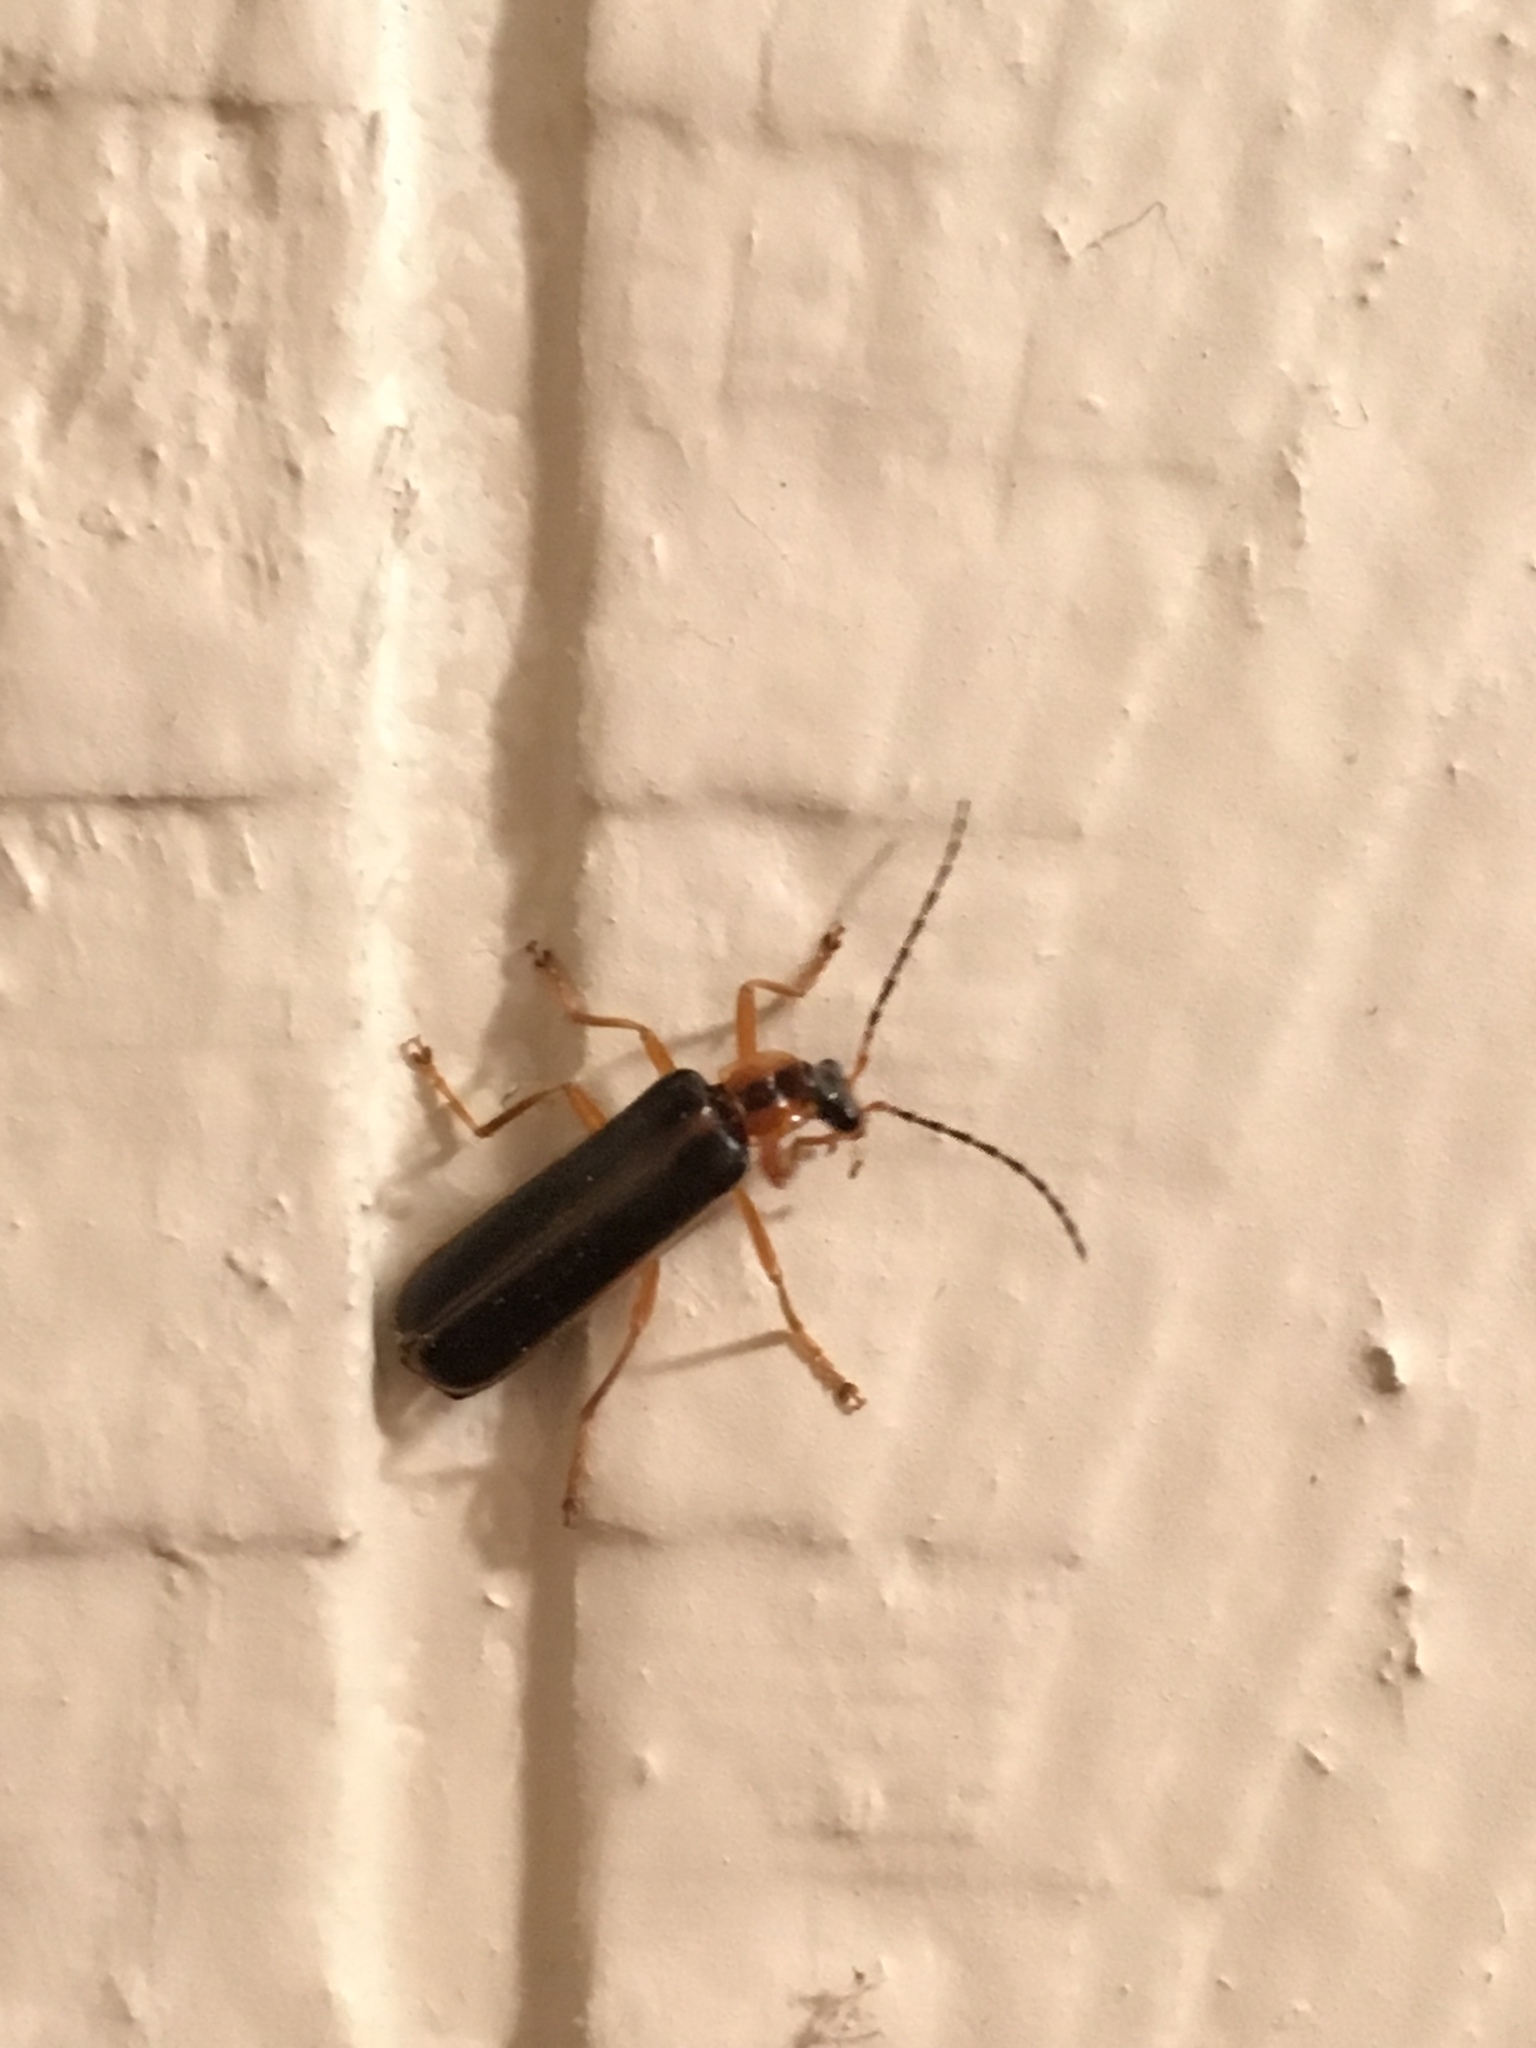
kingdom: Animalia
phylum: Arthropoda
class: Insecta
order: Coleoptera
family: Cantharidae
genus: Podabrus
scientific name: Podabrus brunnicollis
